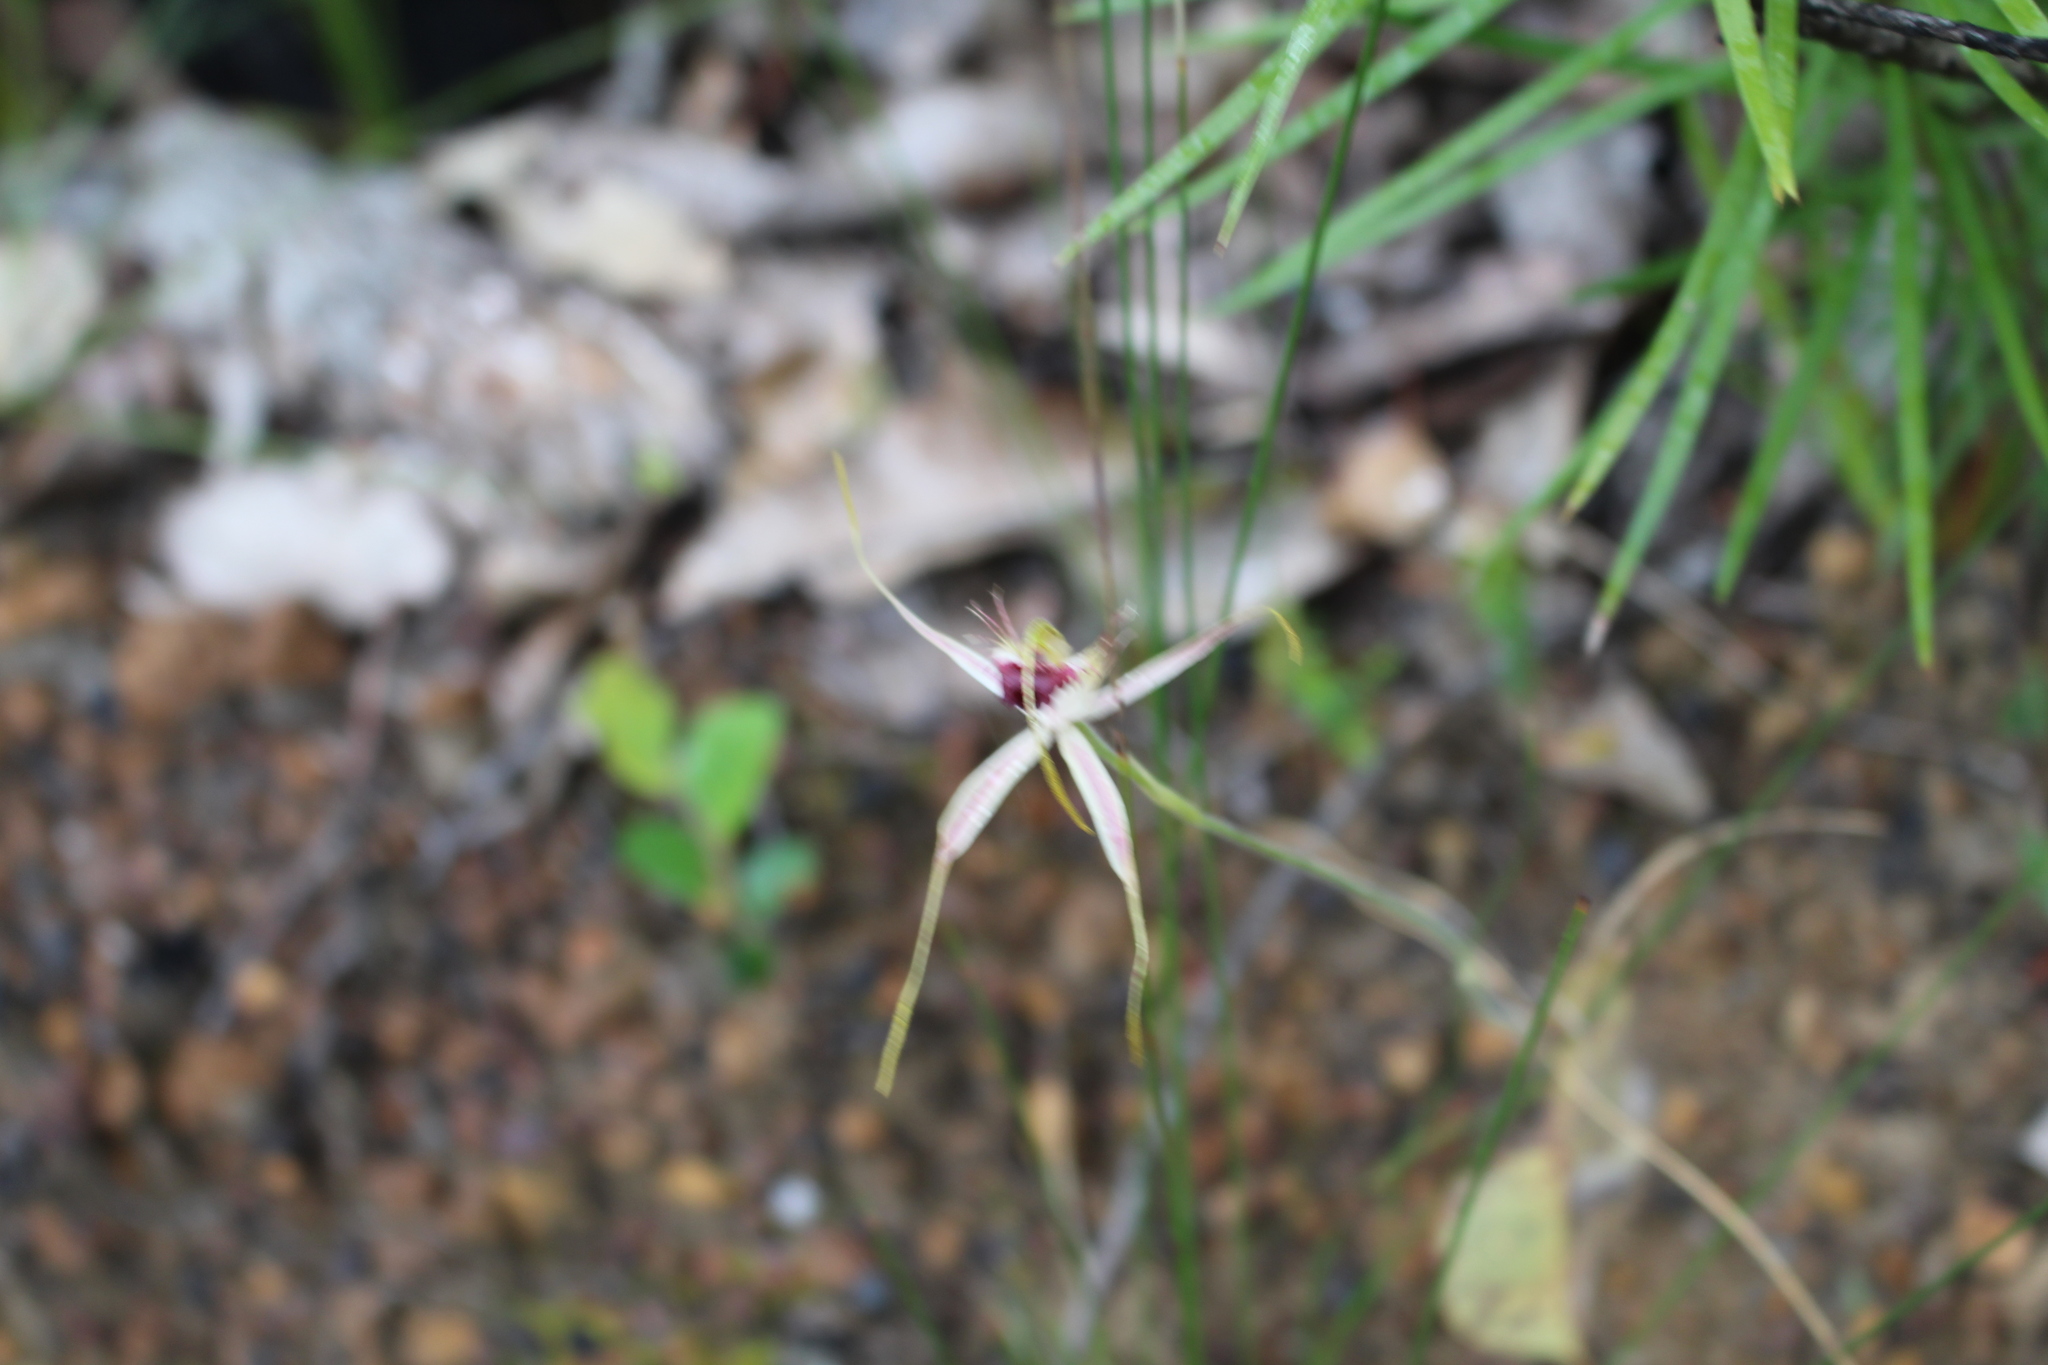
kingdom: Plantae
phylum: Tracheophyta
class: Liliopsida
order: Asparagales
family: Orchidaceae
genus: Caladenia
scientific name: Caladenia brownii
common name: Kari spider orchid
